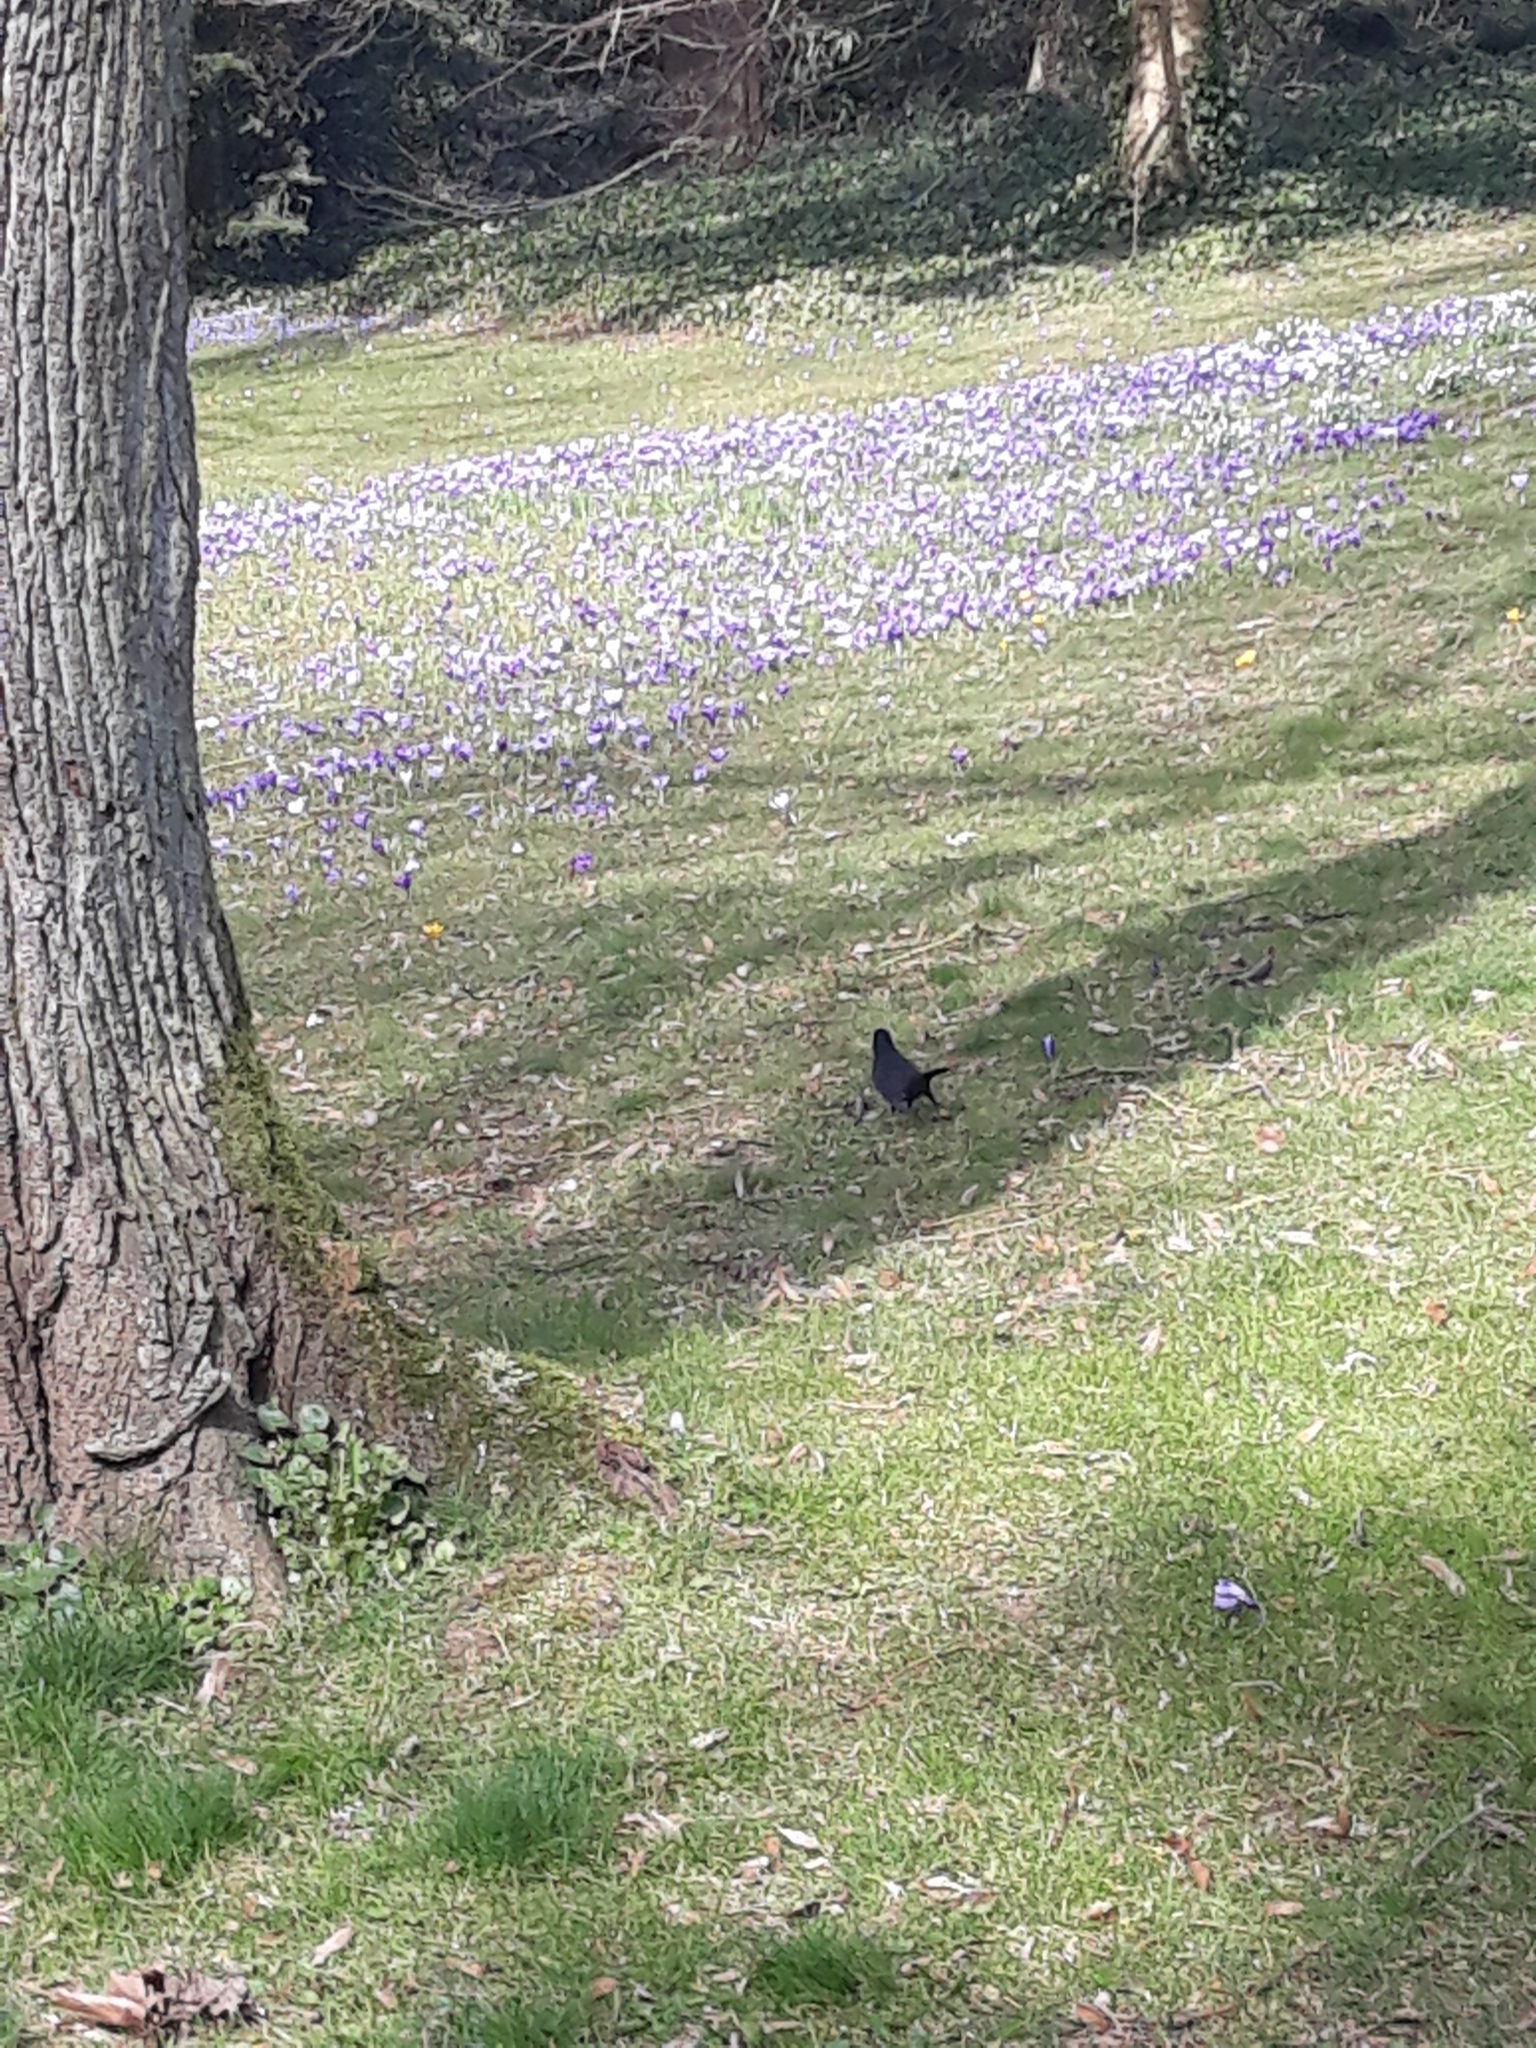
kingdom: Animalia
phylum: Chordata
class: Aves
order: Passeriformes
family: Turdidae
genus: Turdus
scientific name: Turdus merula
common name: Common blackbird
